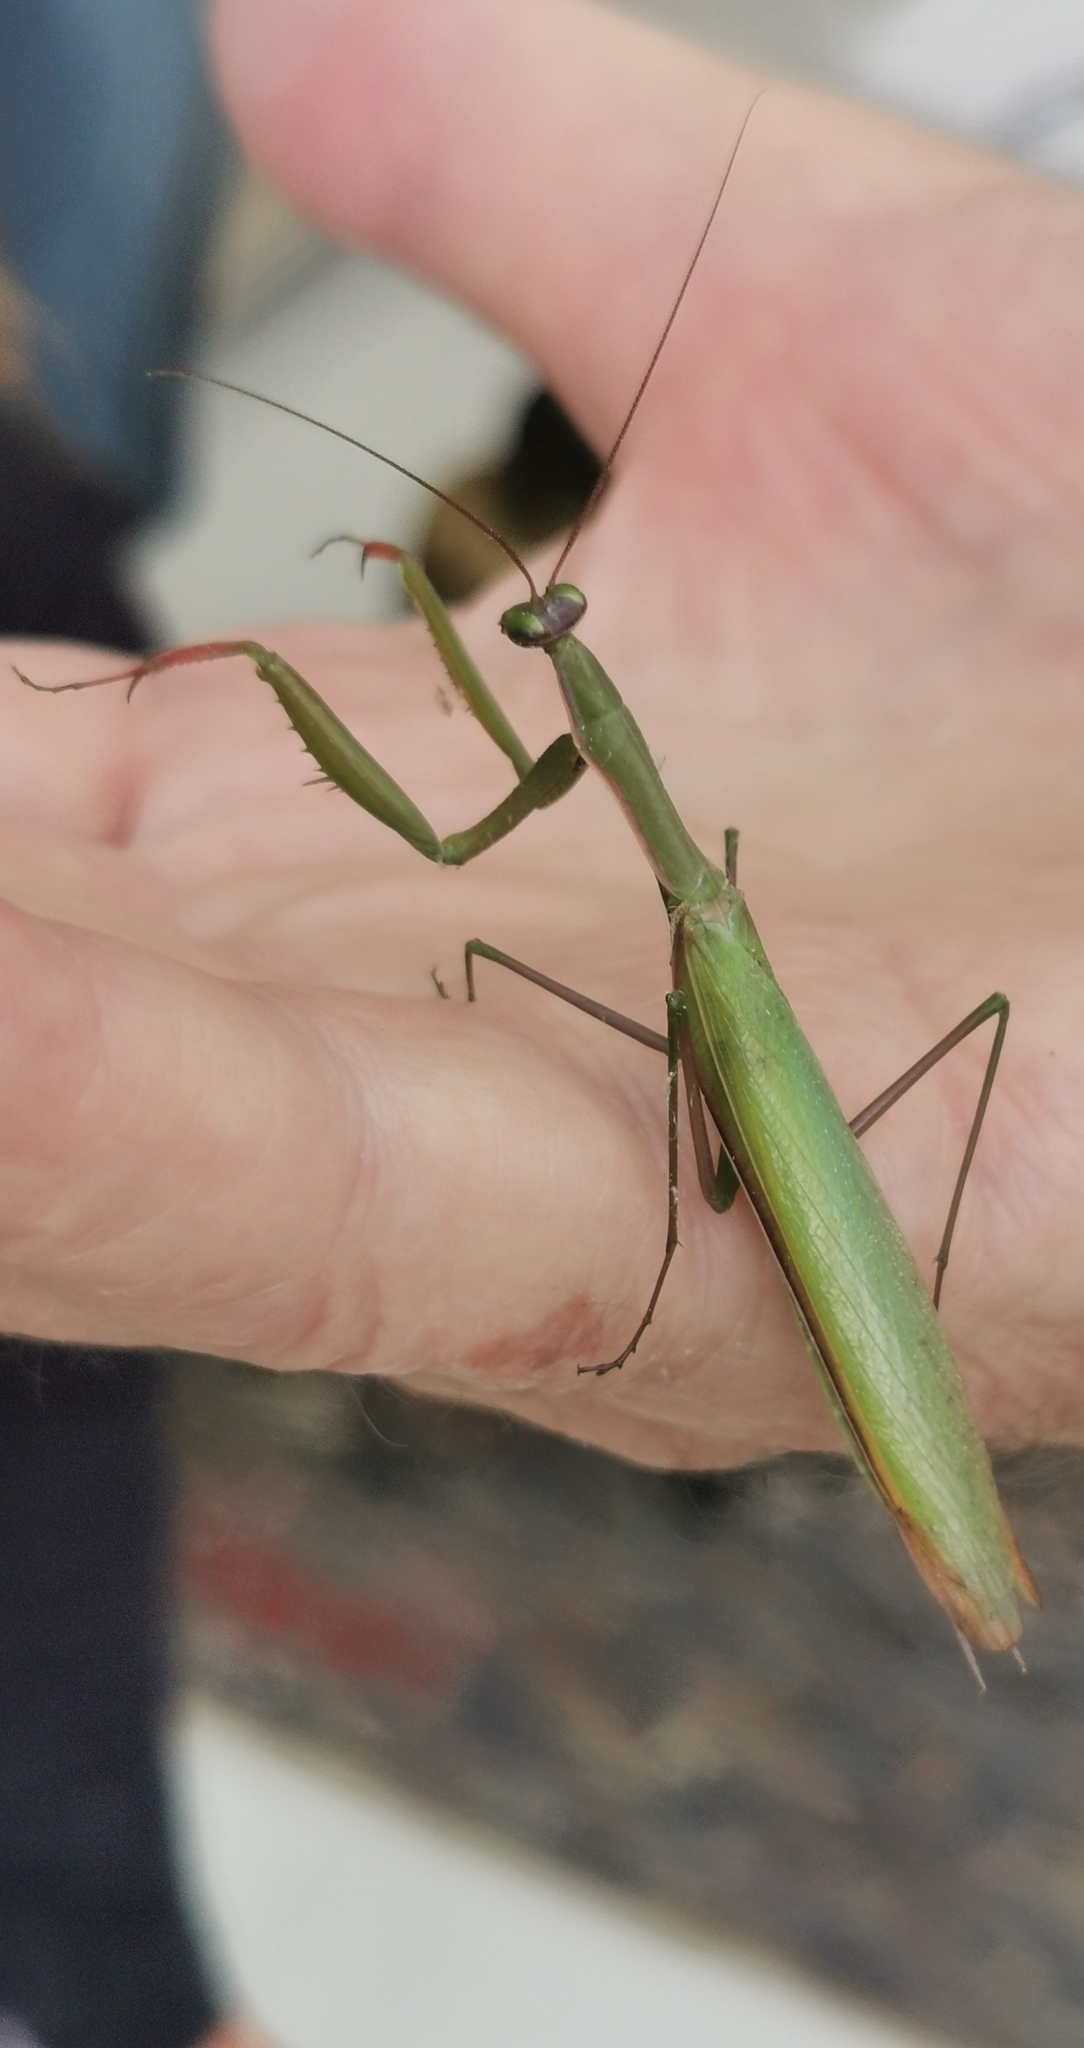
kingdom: Animalia
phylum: Arthropoda
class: Insecta
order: Mantodea
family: Mantidae
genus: Mantis
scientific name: Mantis religiosa
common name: Praying mantis
